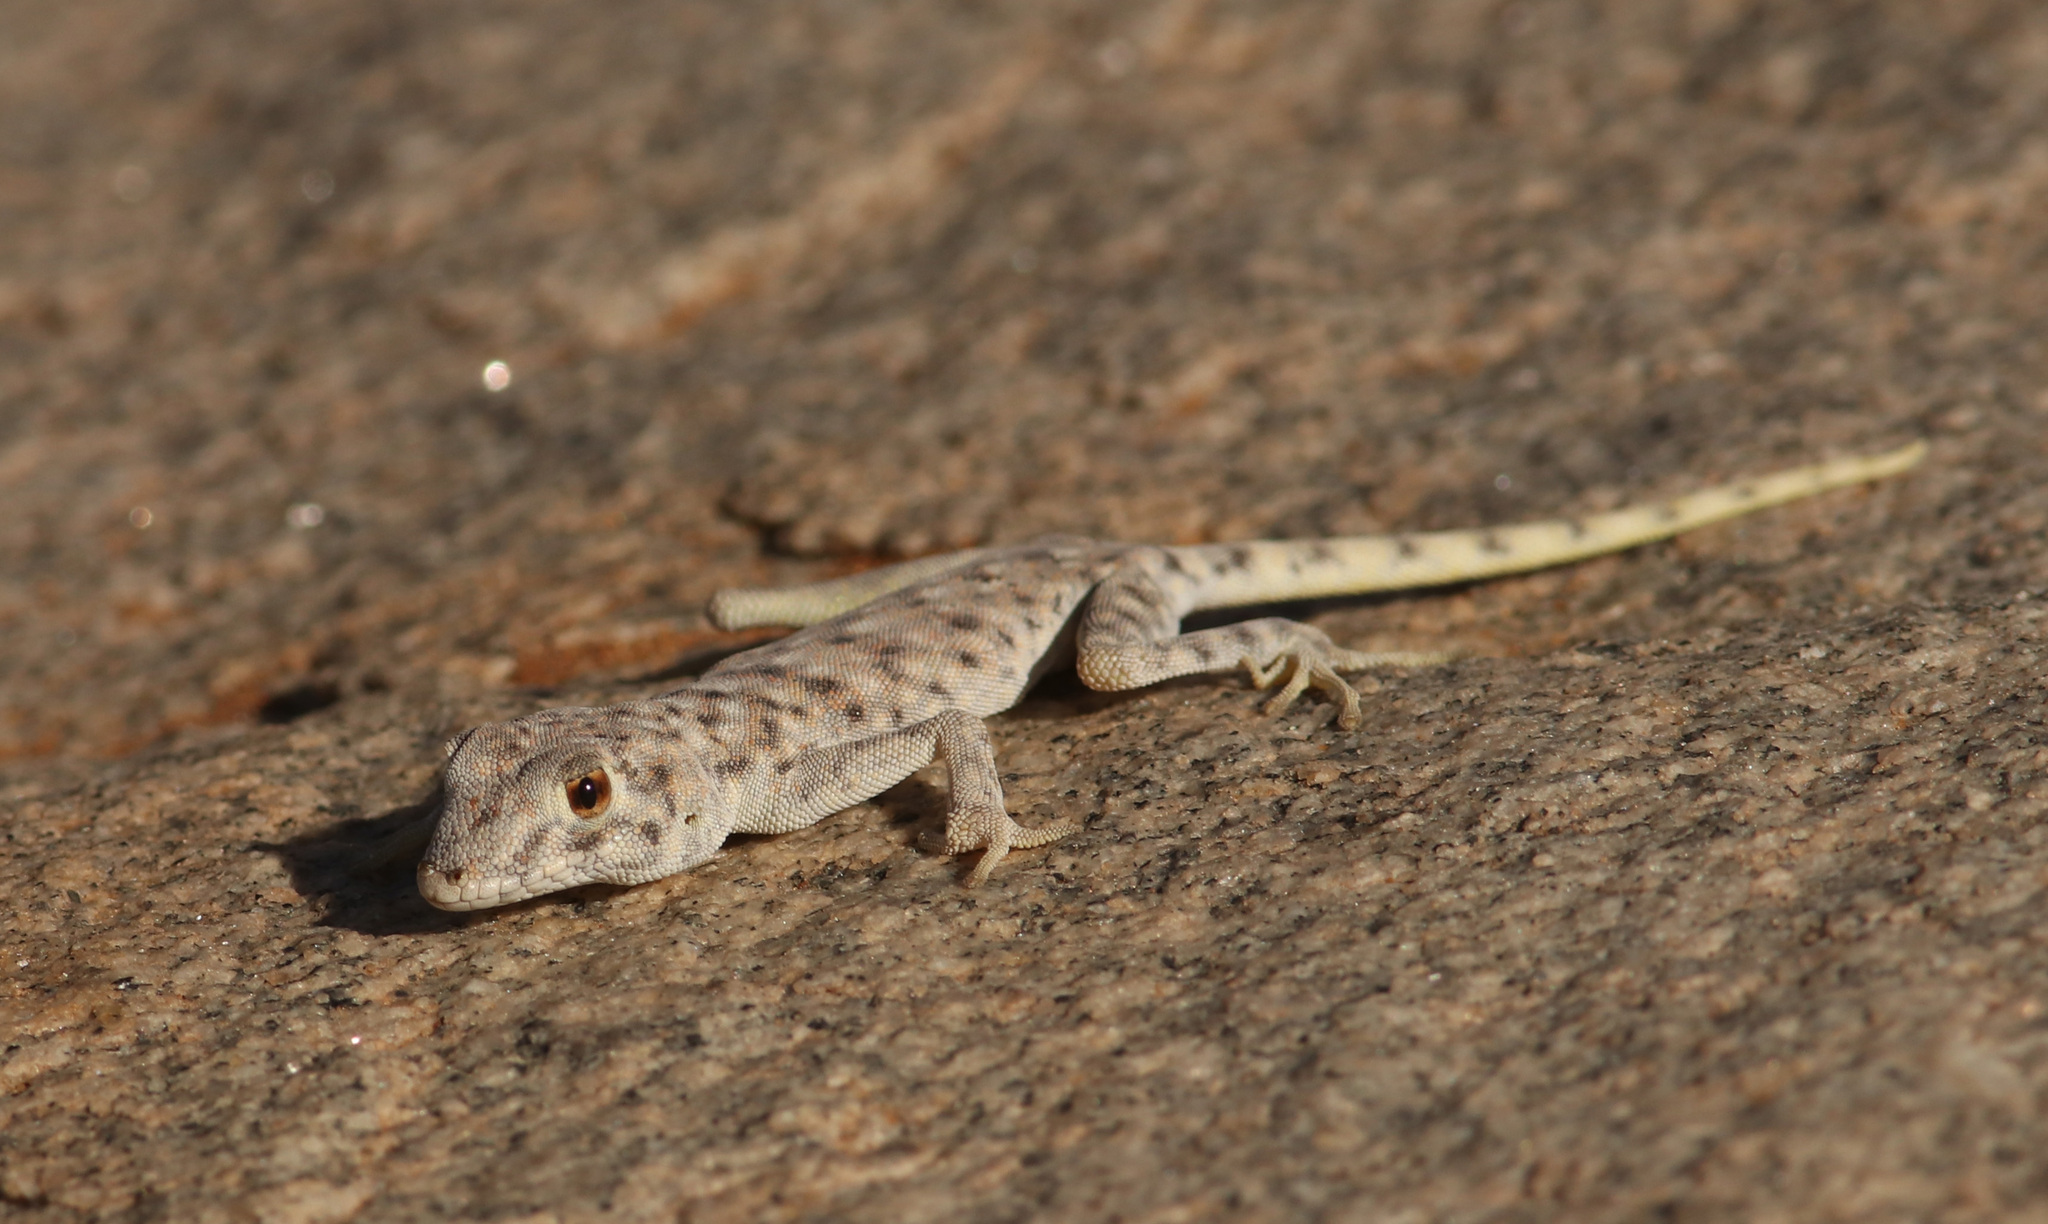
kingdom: Animalia
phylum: Chordata
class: Squamata
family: Gekkonidae
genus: Rhoptropus
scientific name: Rhoptropus afer
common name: Namib day gecko
